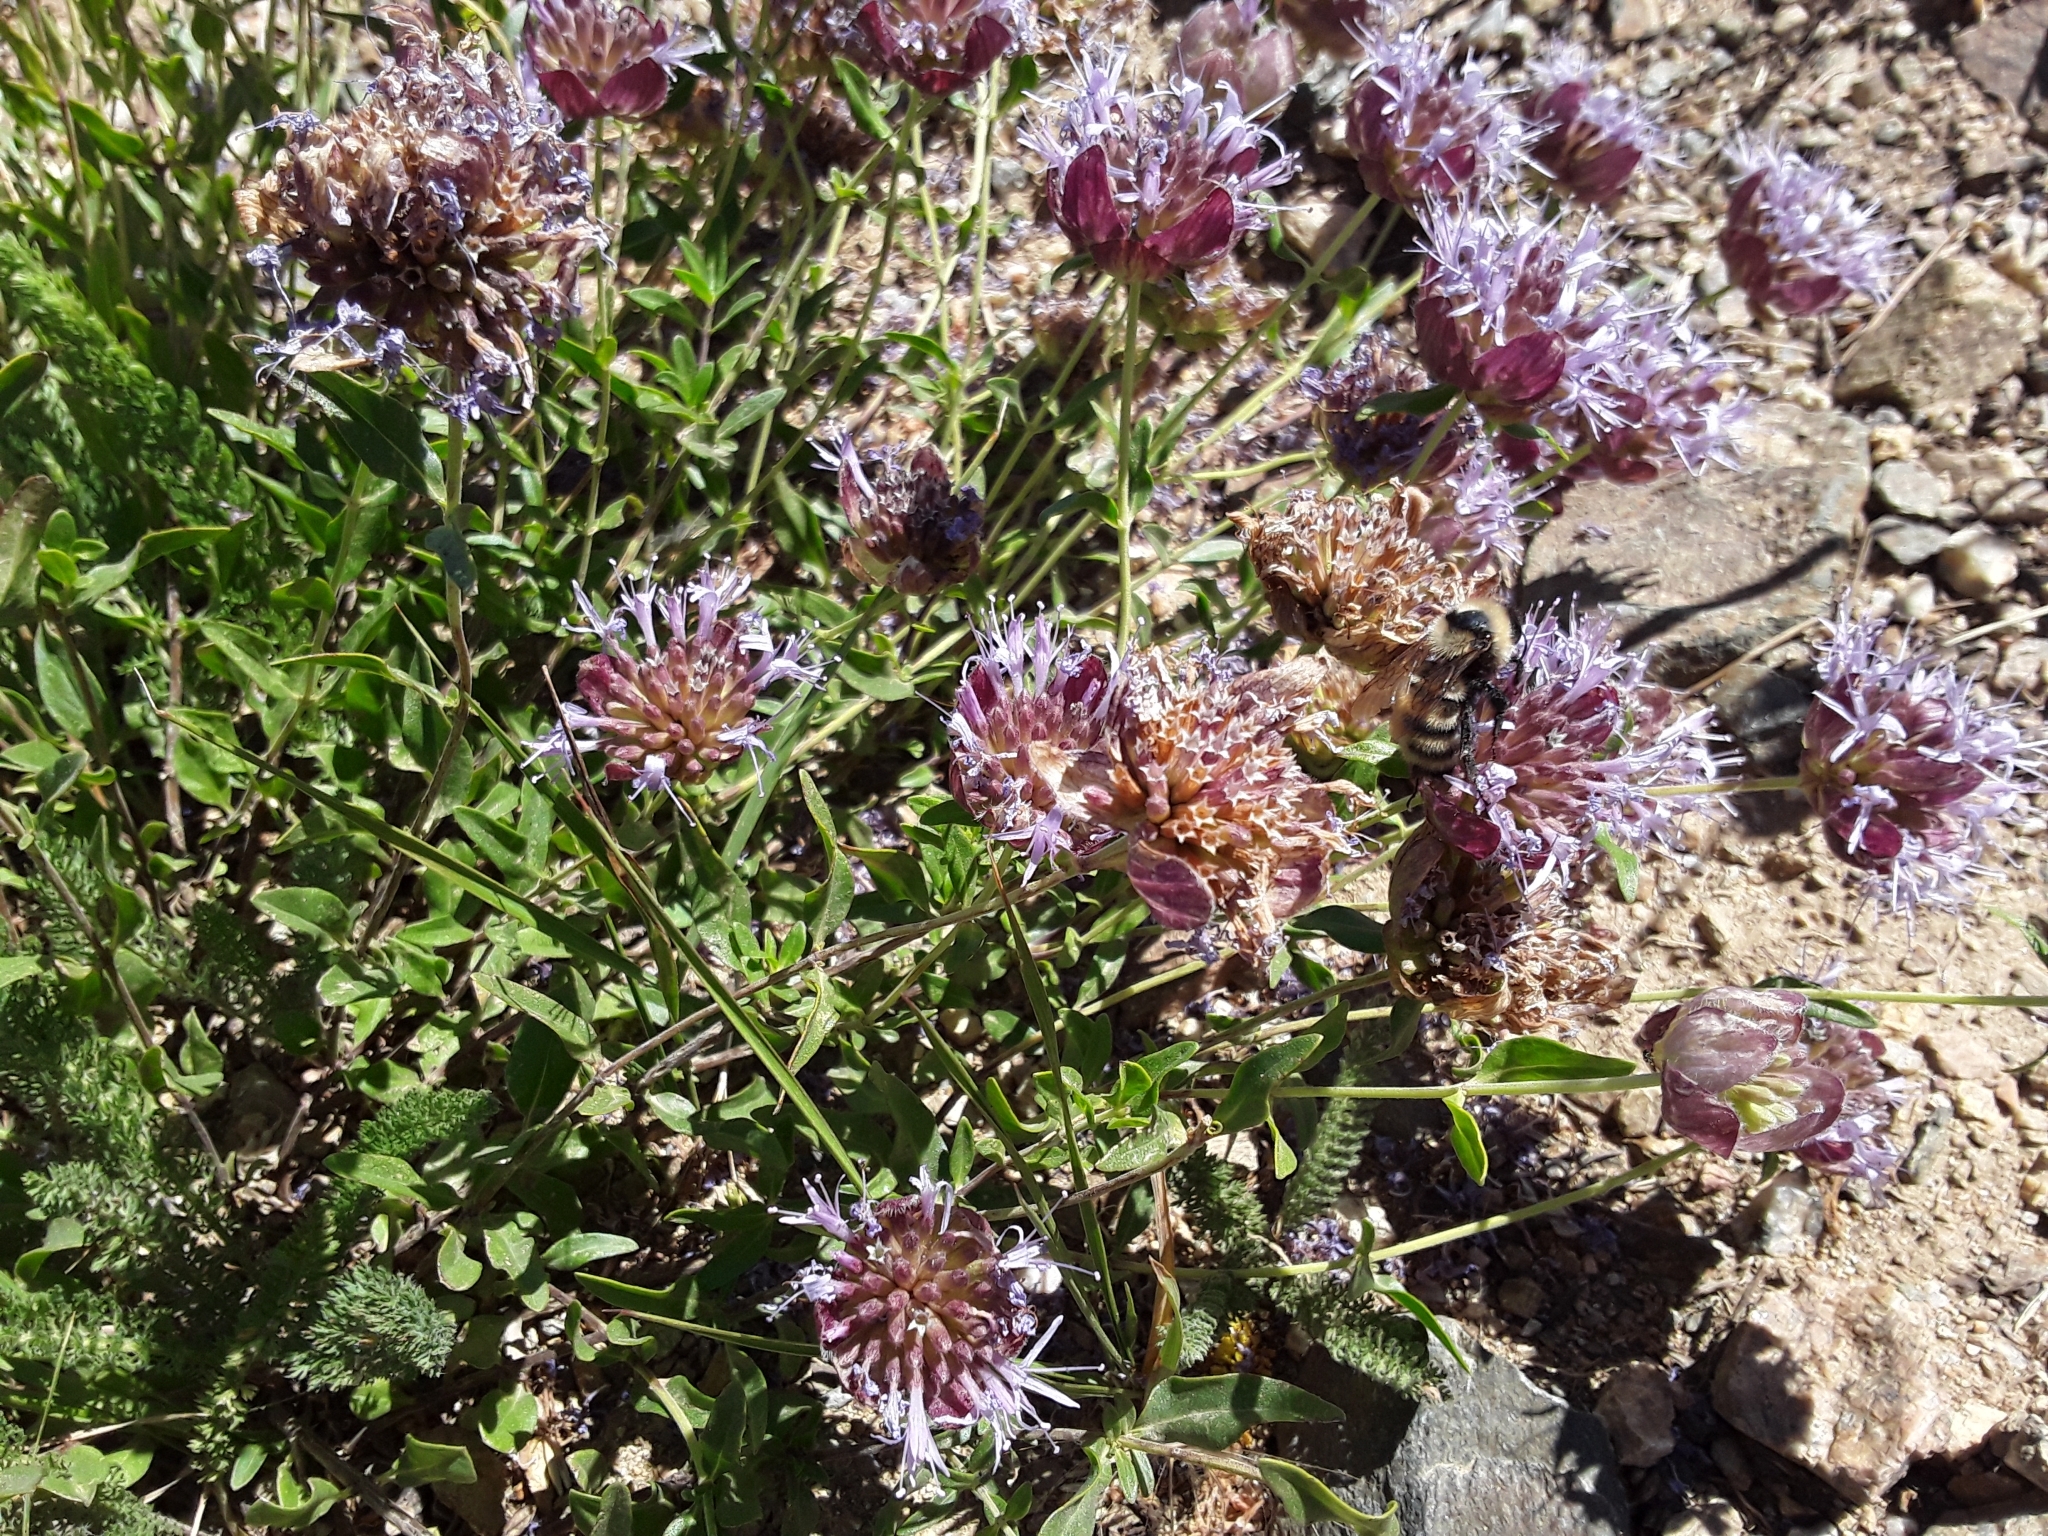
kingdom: Plantae
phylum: Tracheophyta
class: Magnoliopsida
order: Lamiales
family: Lamiaceae
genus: Monardella
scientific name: Monardella odoratissima
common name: Pacific monardella
